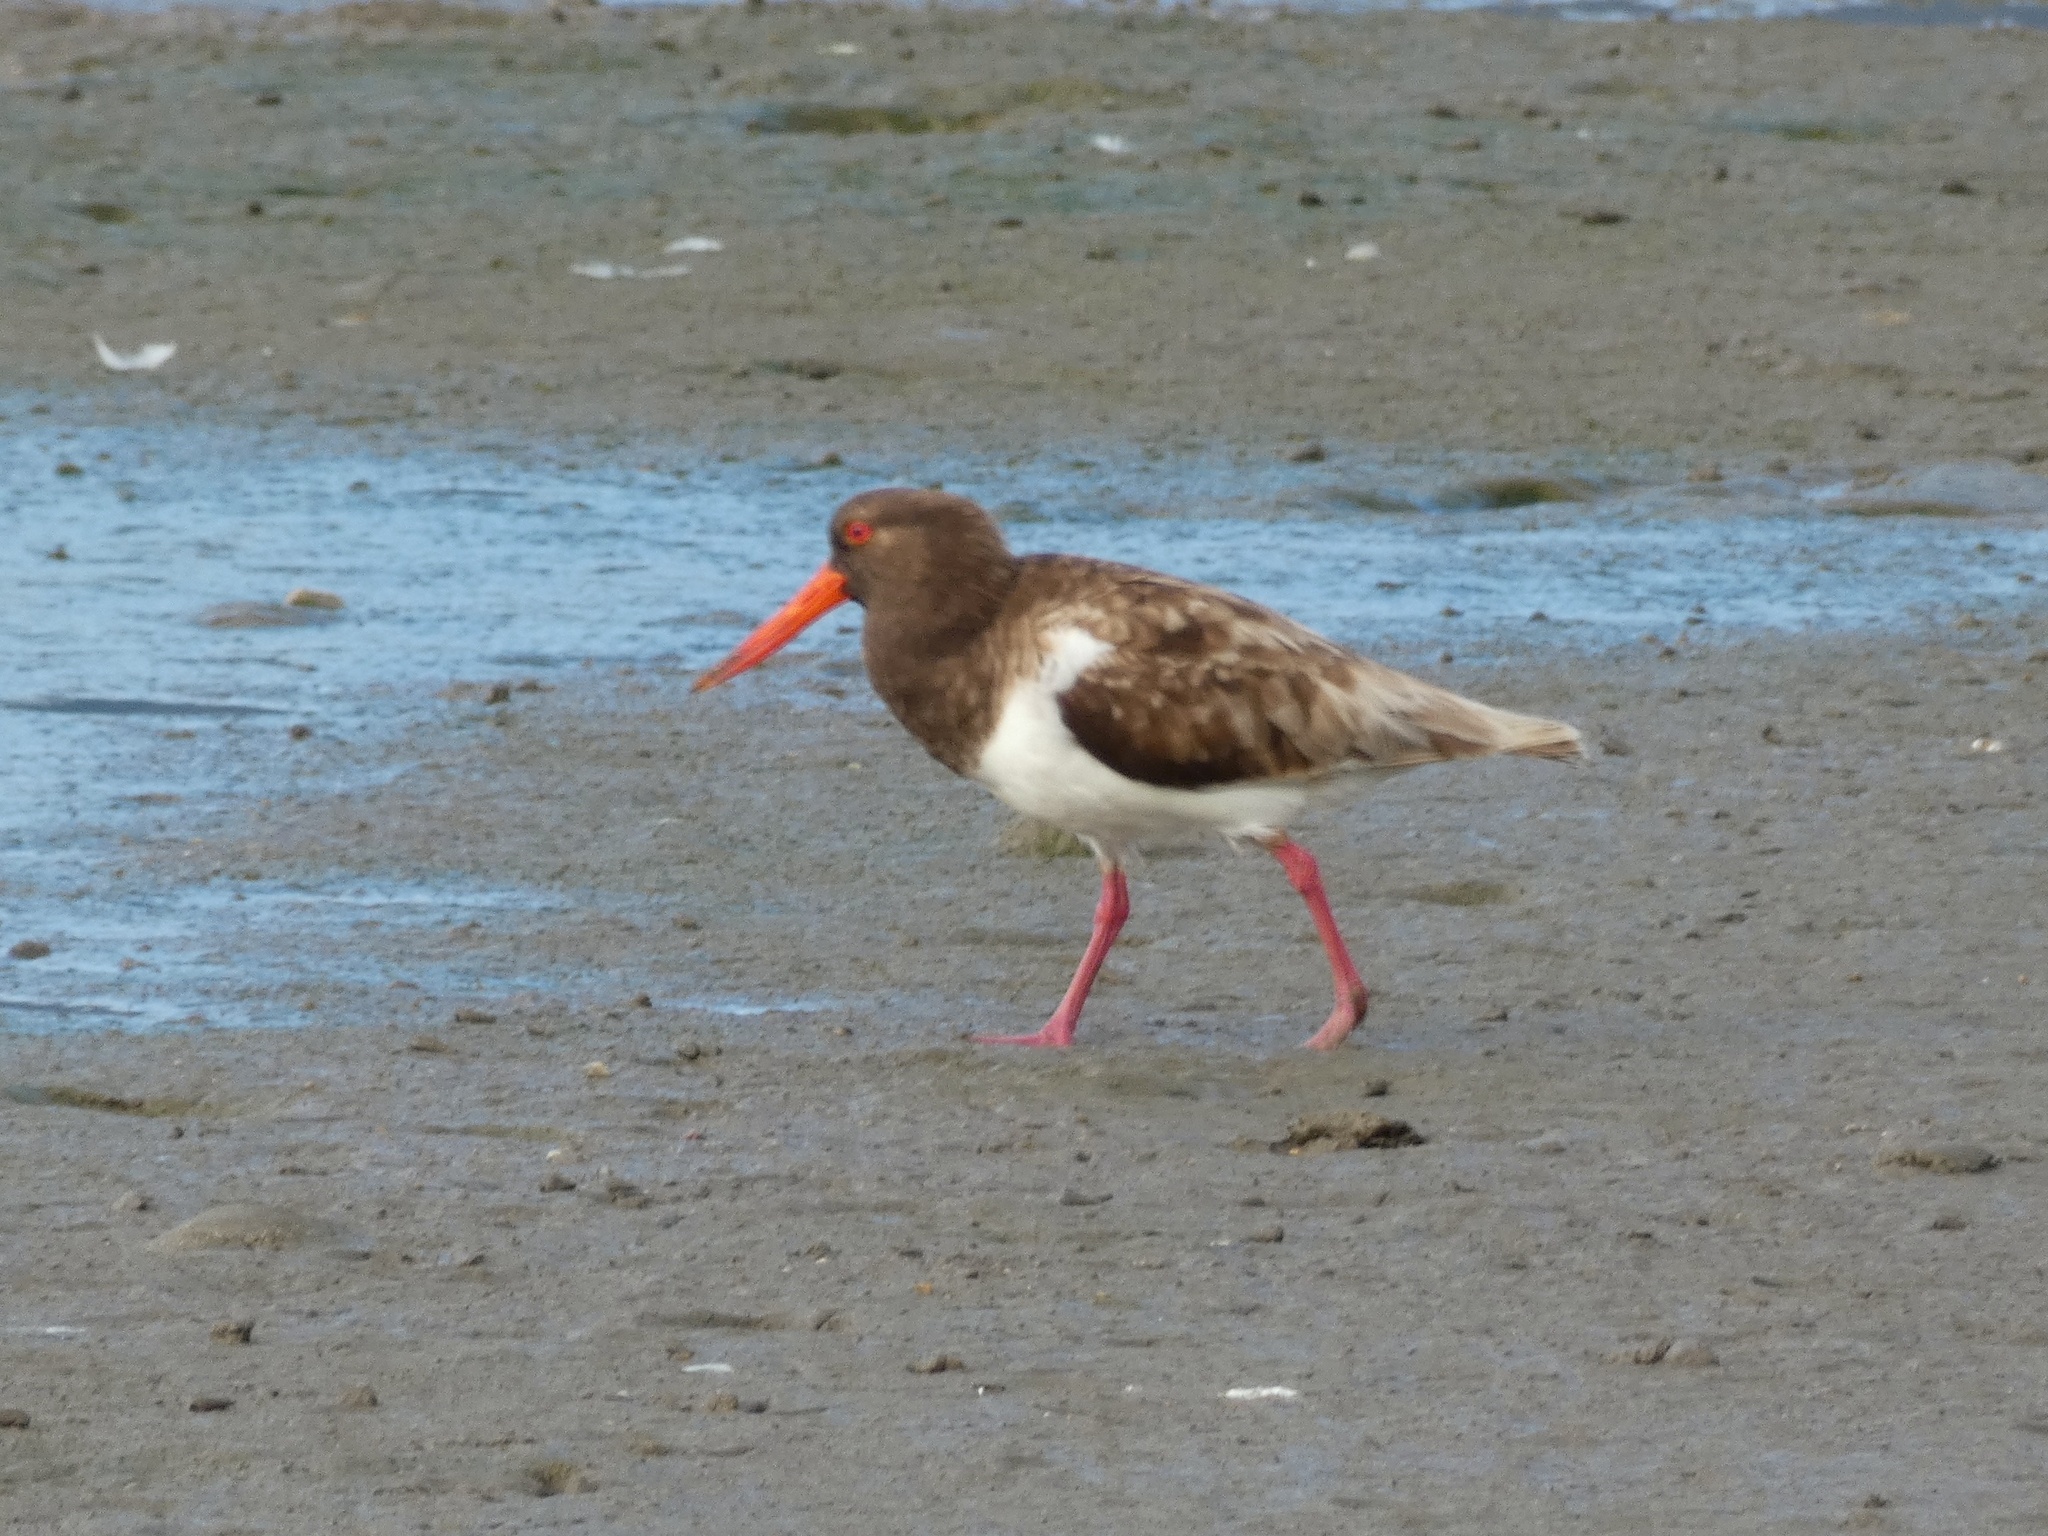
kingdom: Animalia
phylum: Chordata
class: Aves
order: Charadriiformes
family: Haematopodidae
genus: Haematopus
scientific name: Haematopus longirostris
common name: Pied oystercatcher
